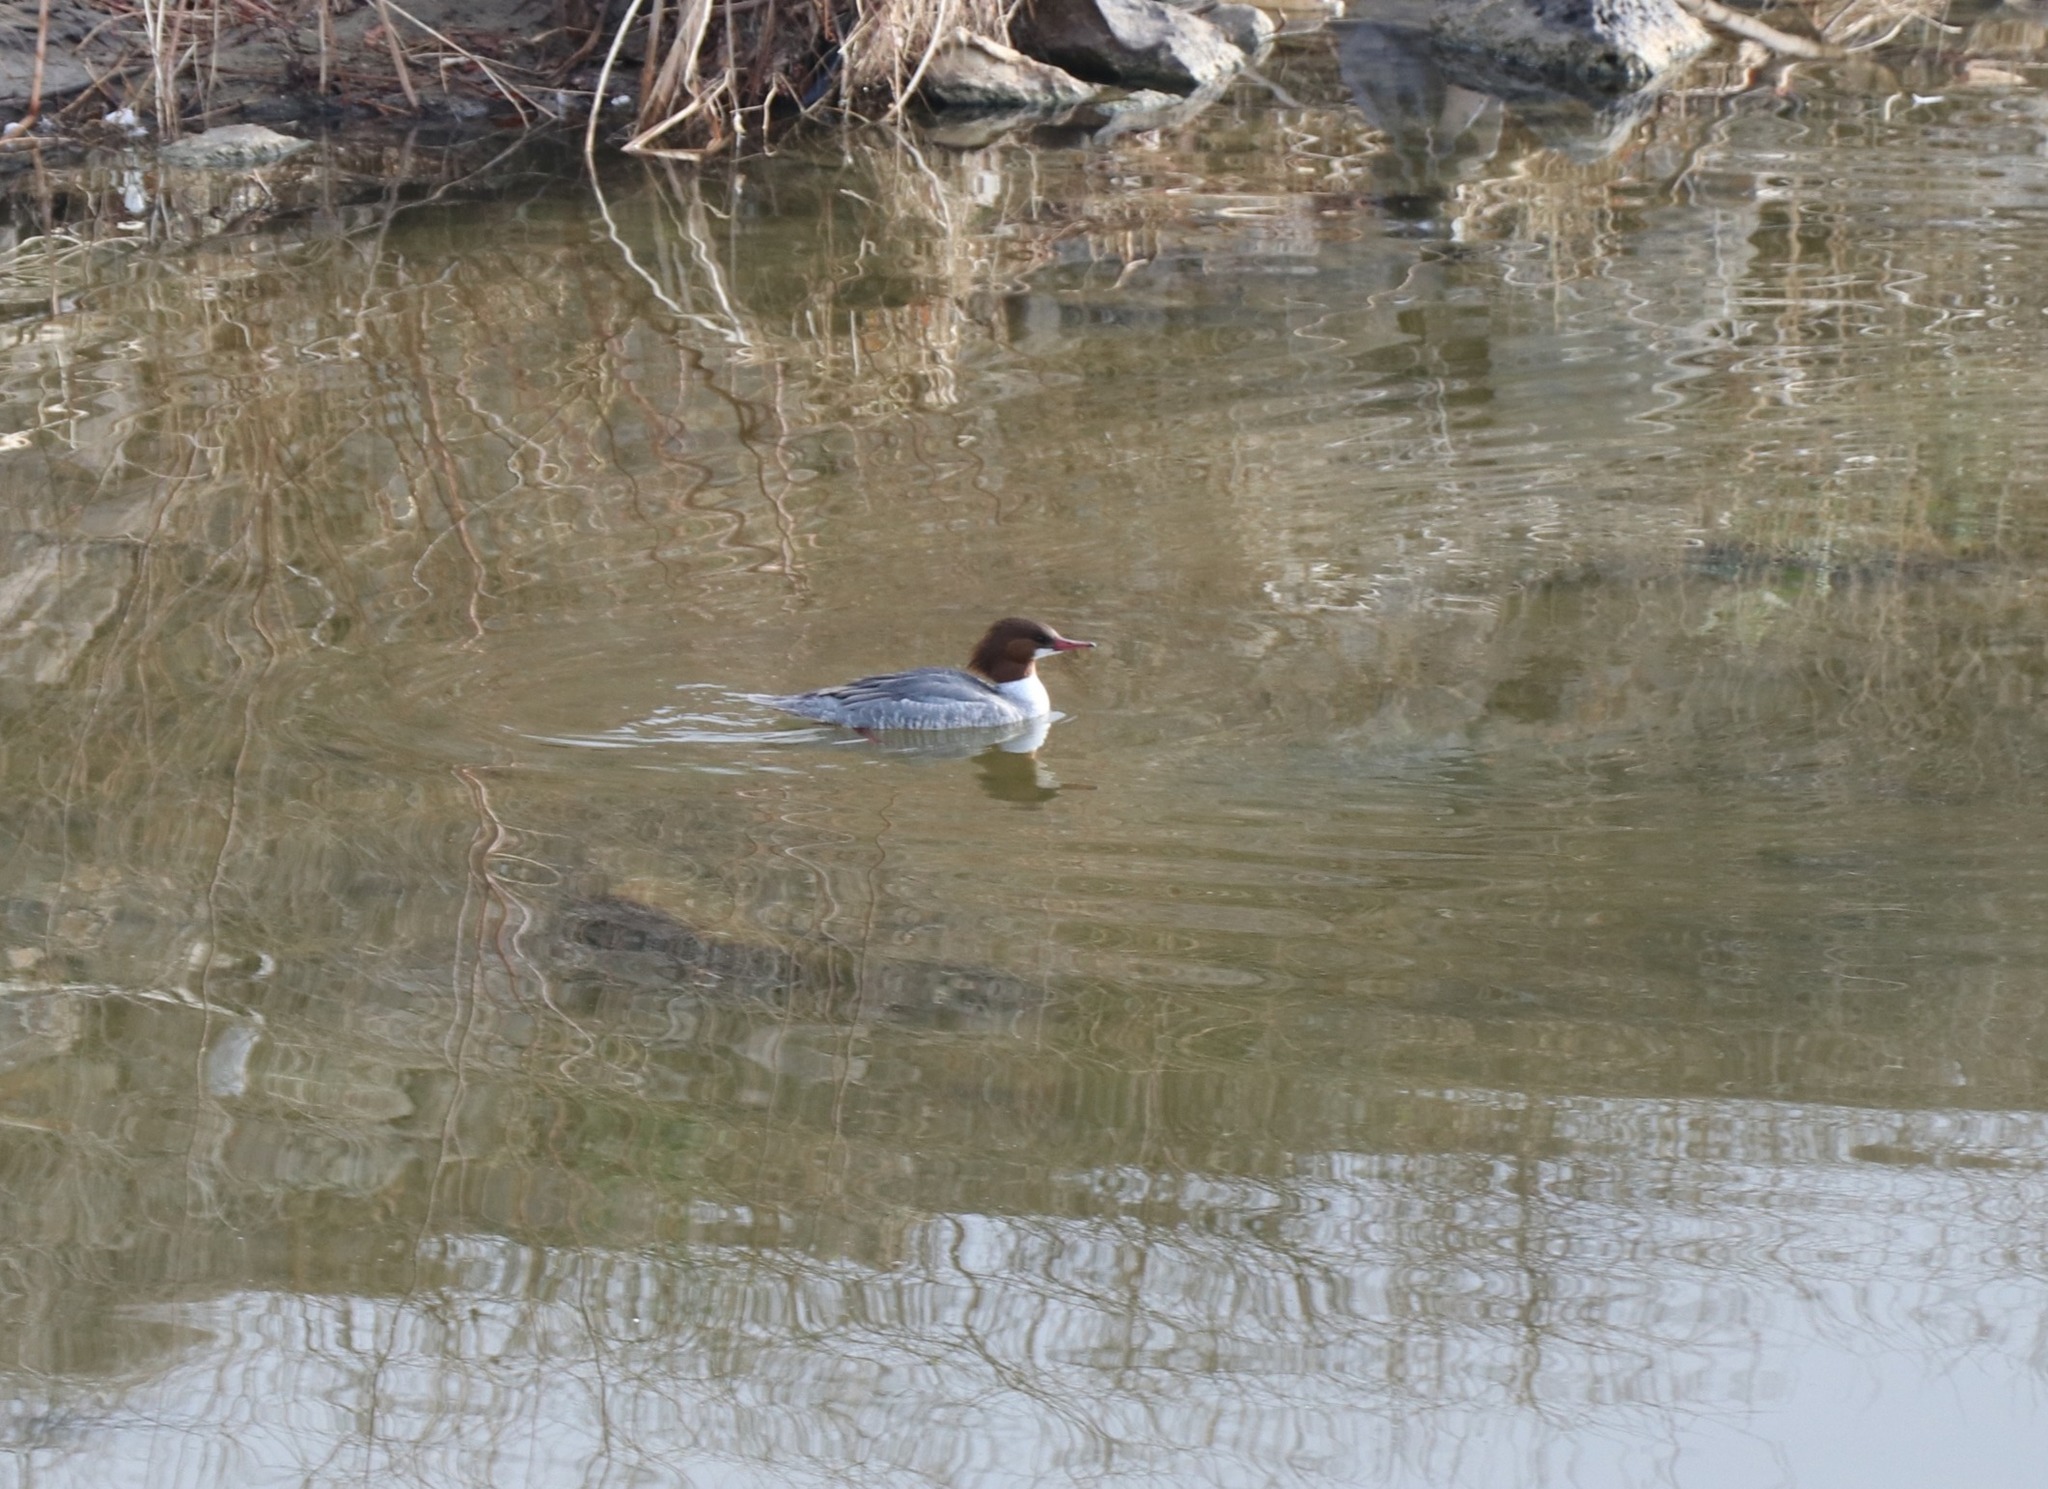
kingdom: Animalia
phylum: Chordata
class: Aves
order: Anseriformes
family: Anatidae
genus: Mergus
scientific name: Mergus merganser
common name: Common merganser
